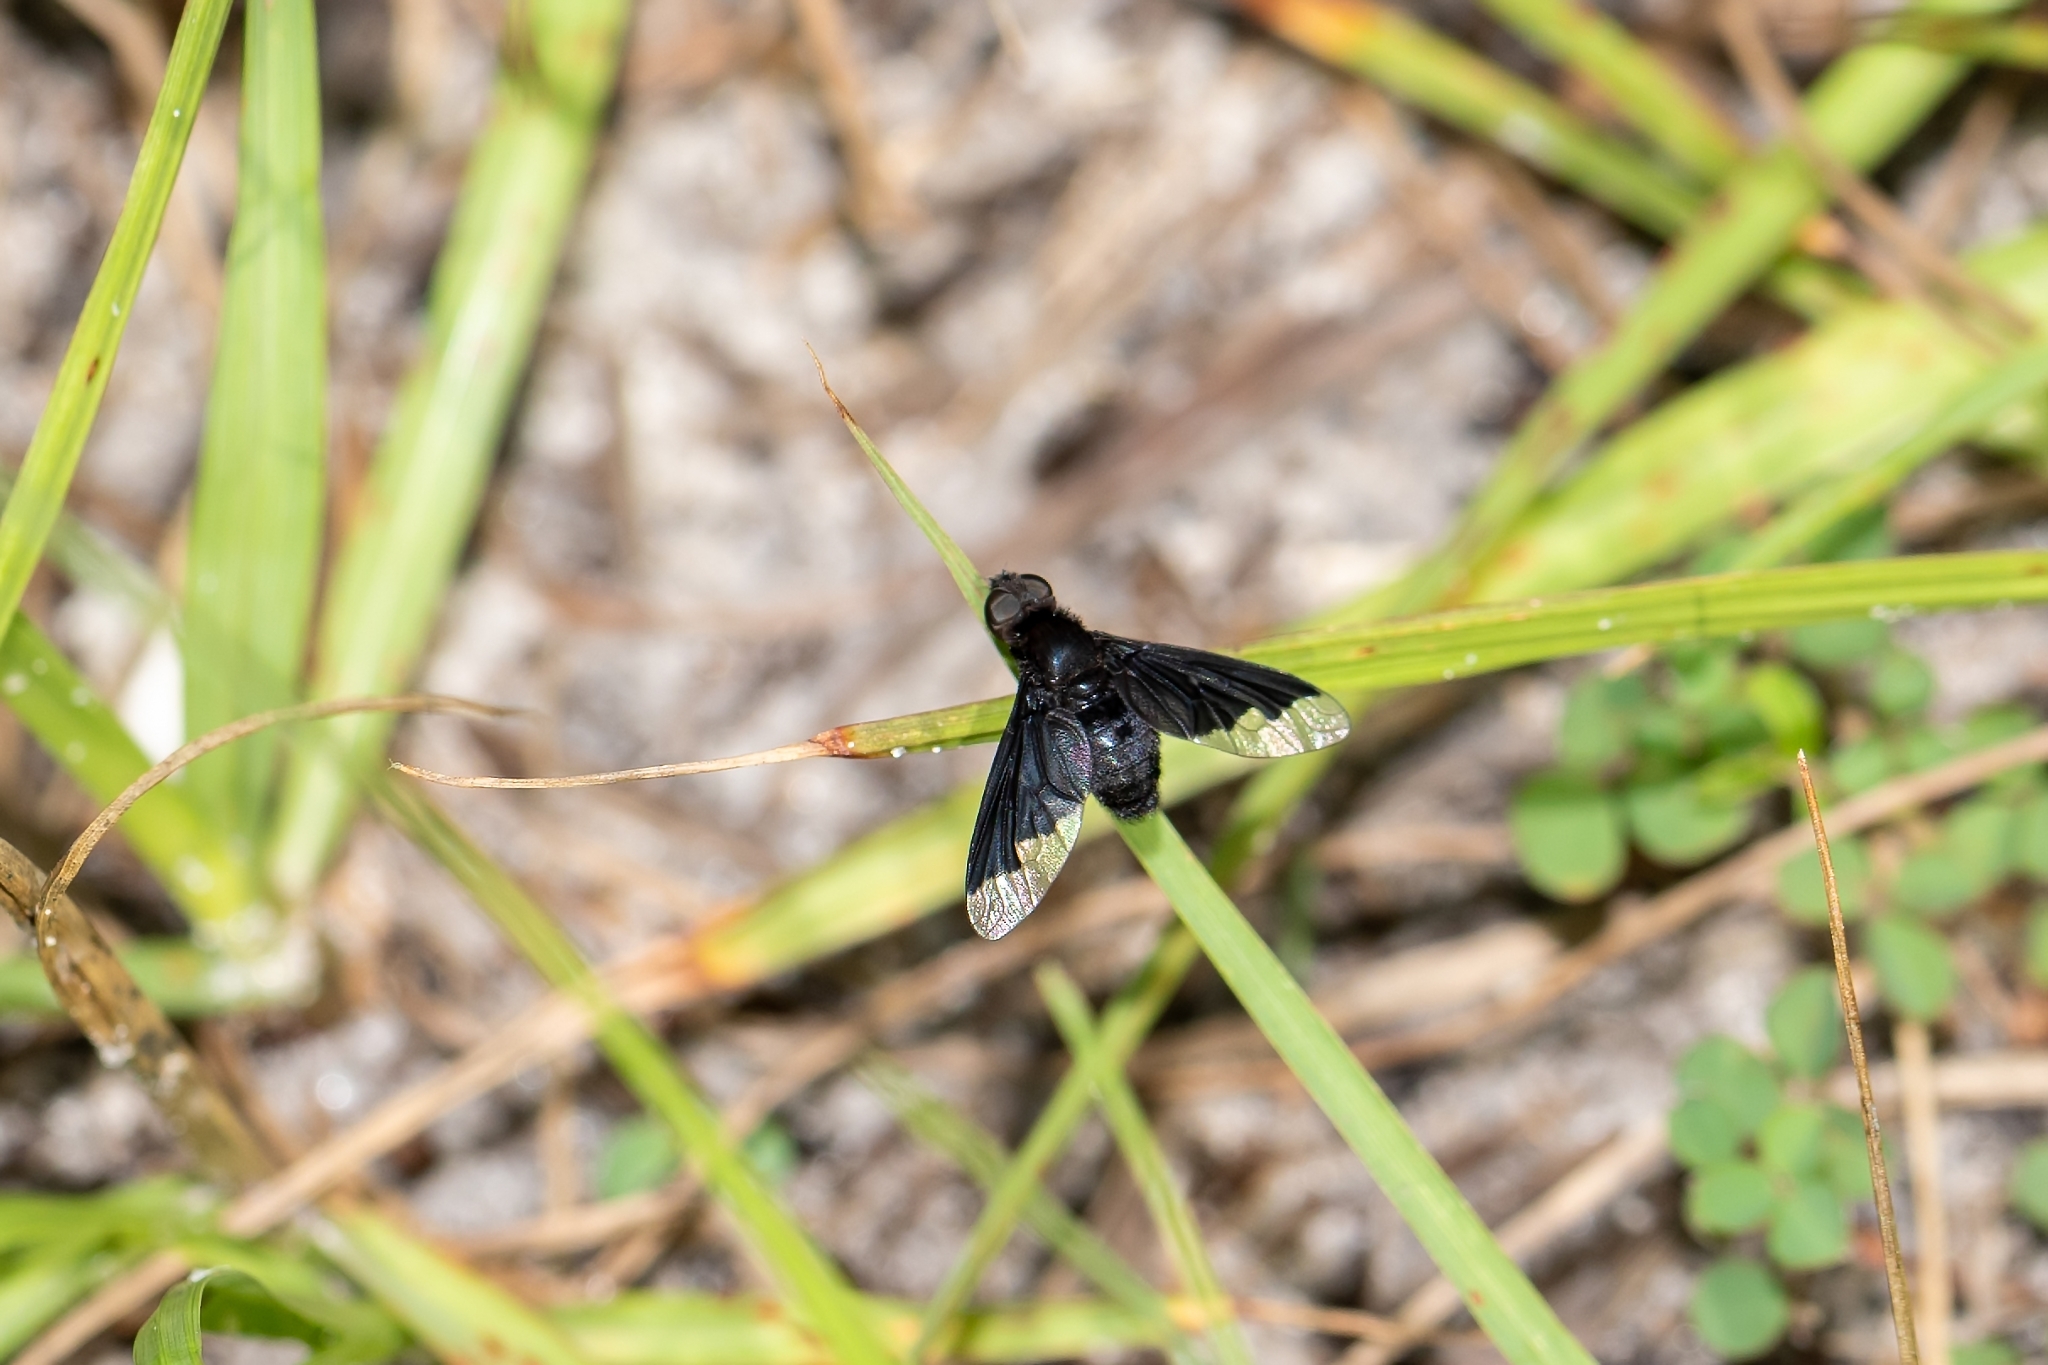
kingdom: Animalia
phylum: Arthropoda
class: Insecta
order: Diptera
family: Bombyliidae
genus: Anthrax
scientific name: Anthrax analis
